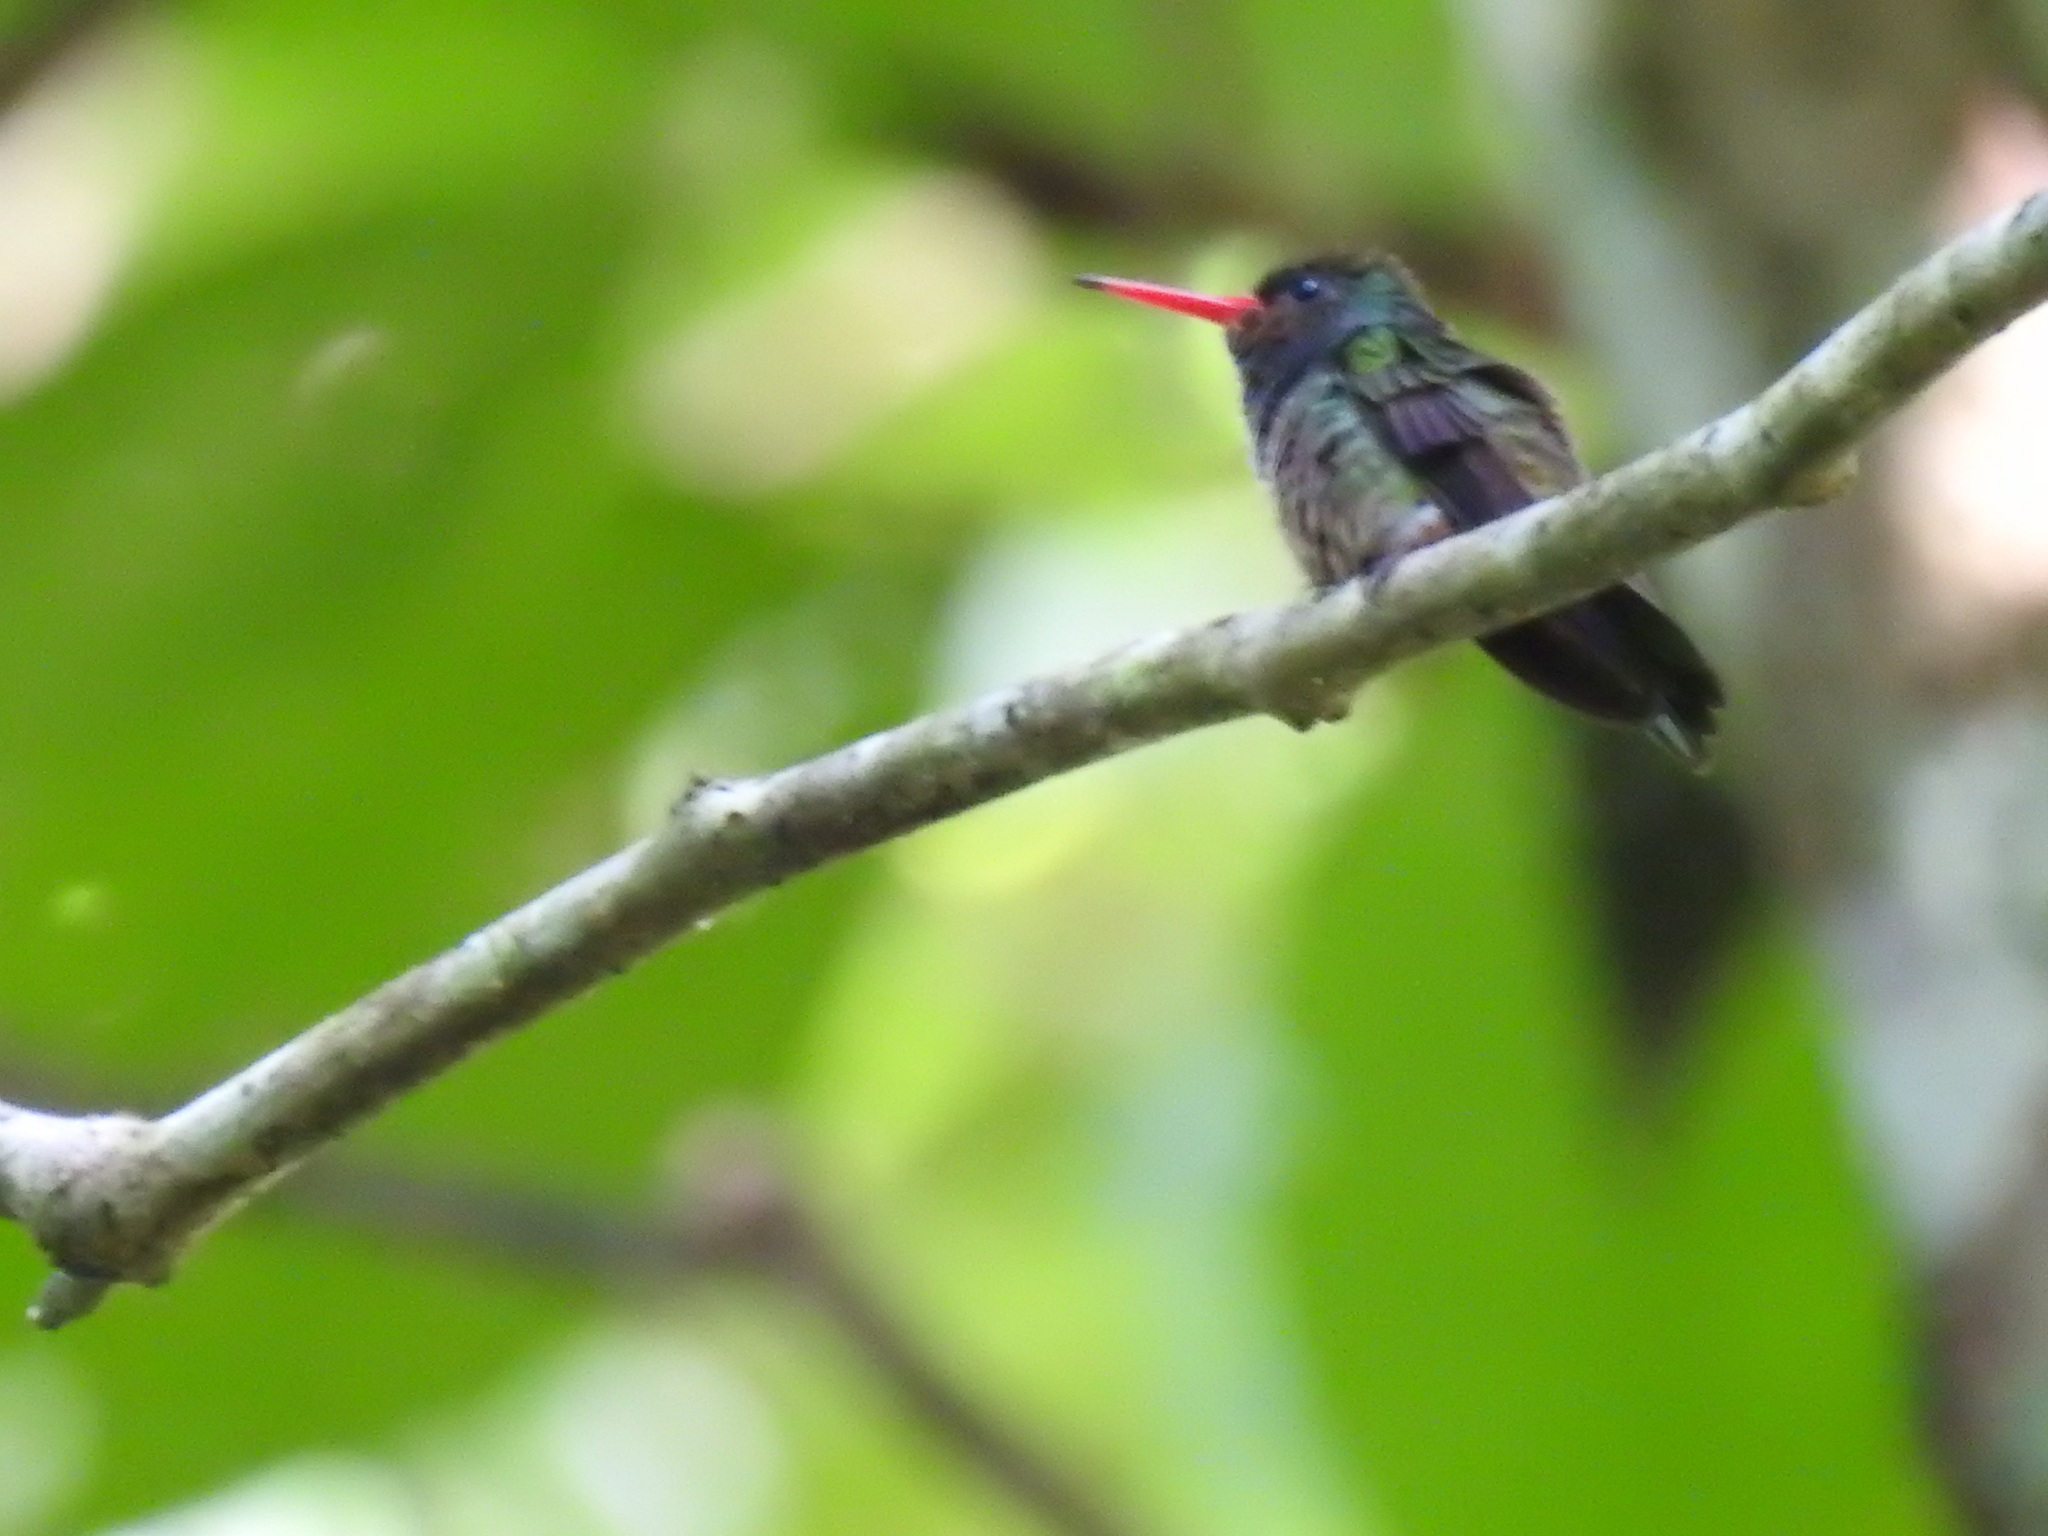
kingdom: Animalia
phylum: Chordata
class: Aves
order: Apodiformes
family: Trochilidae
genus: Chlorestes
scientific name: Chlorestes eliciae
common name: Blue-throated sapphire
